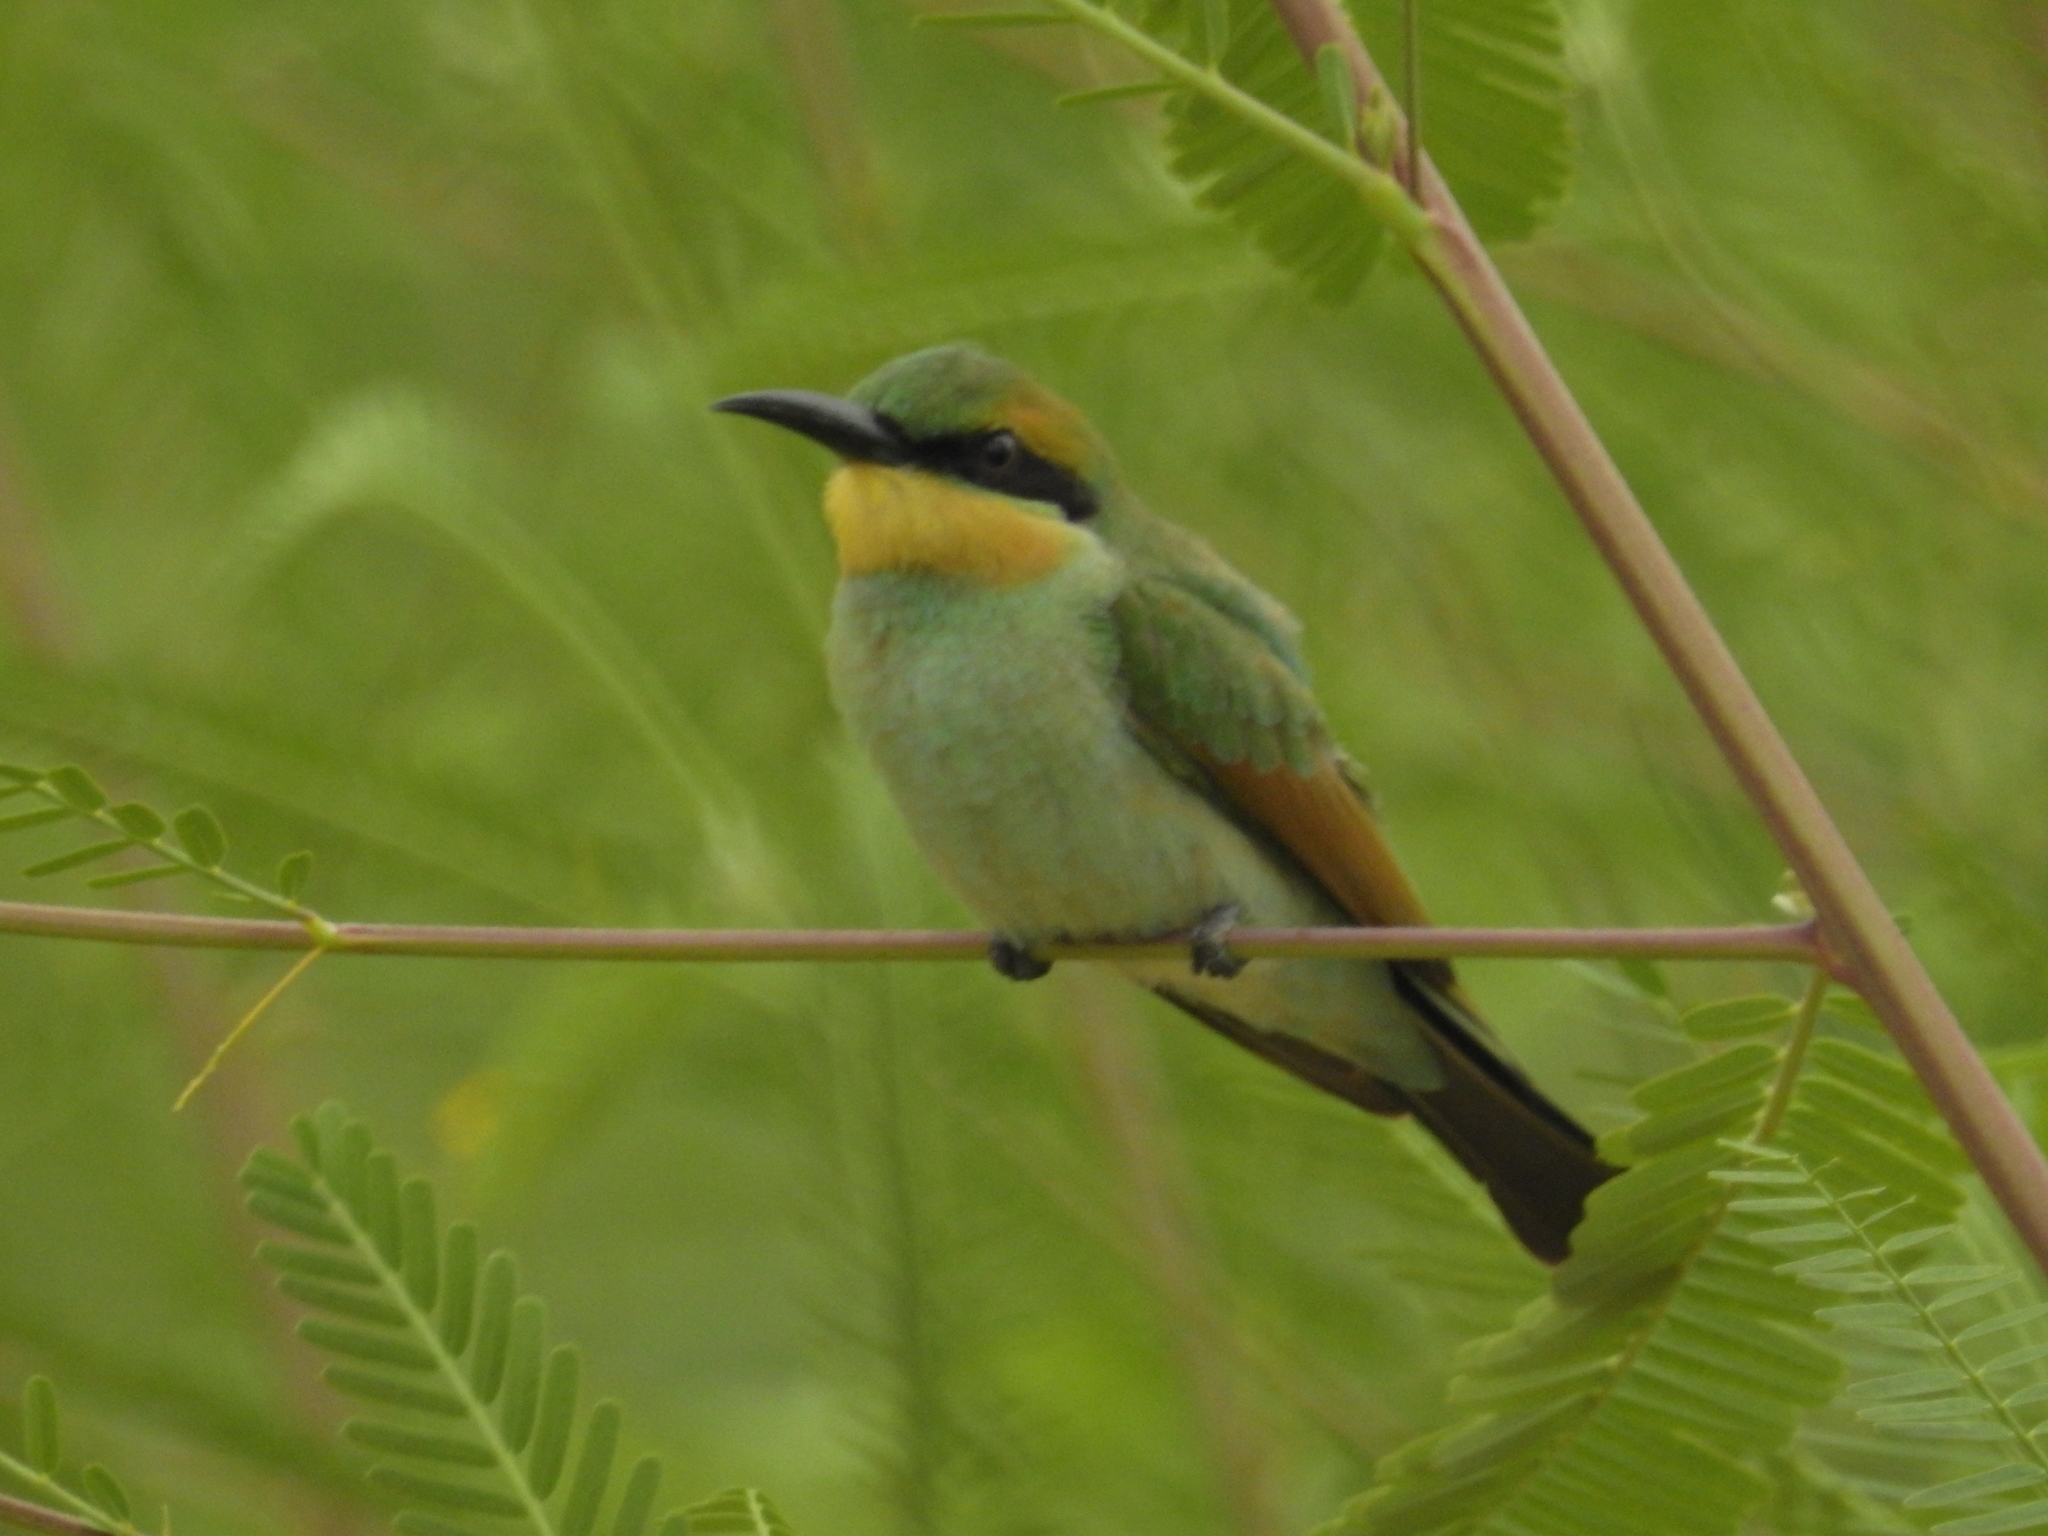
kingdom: Animalia
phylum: Chordata
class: Aves
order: Coraciiformes
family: Meropidae
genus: Merops
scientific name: Merops ornatus
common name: Rainbow bee-eater
